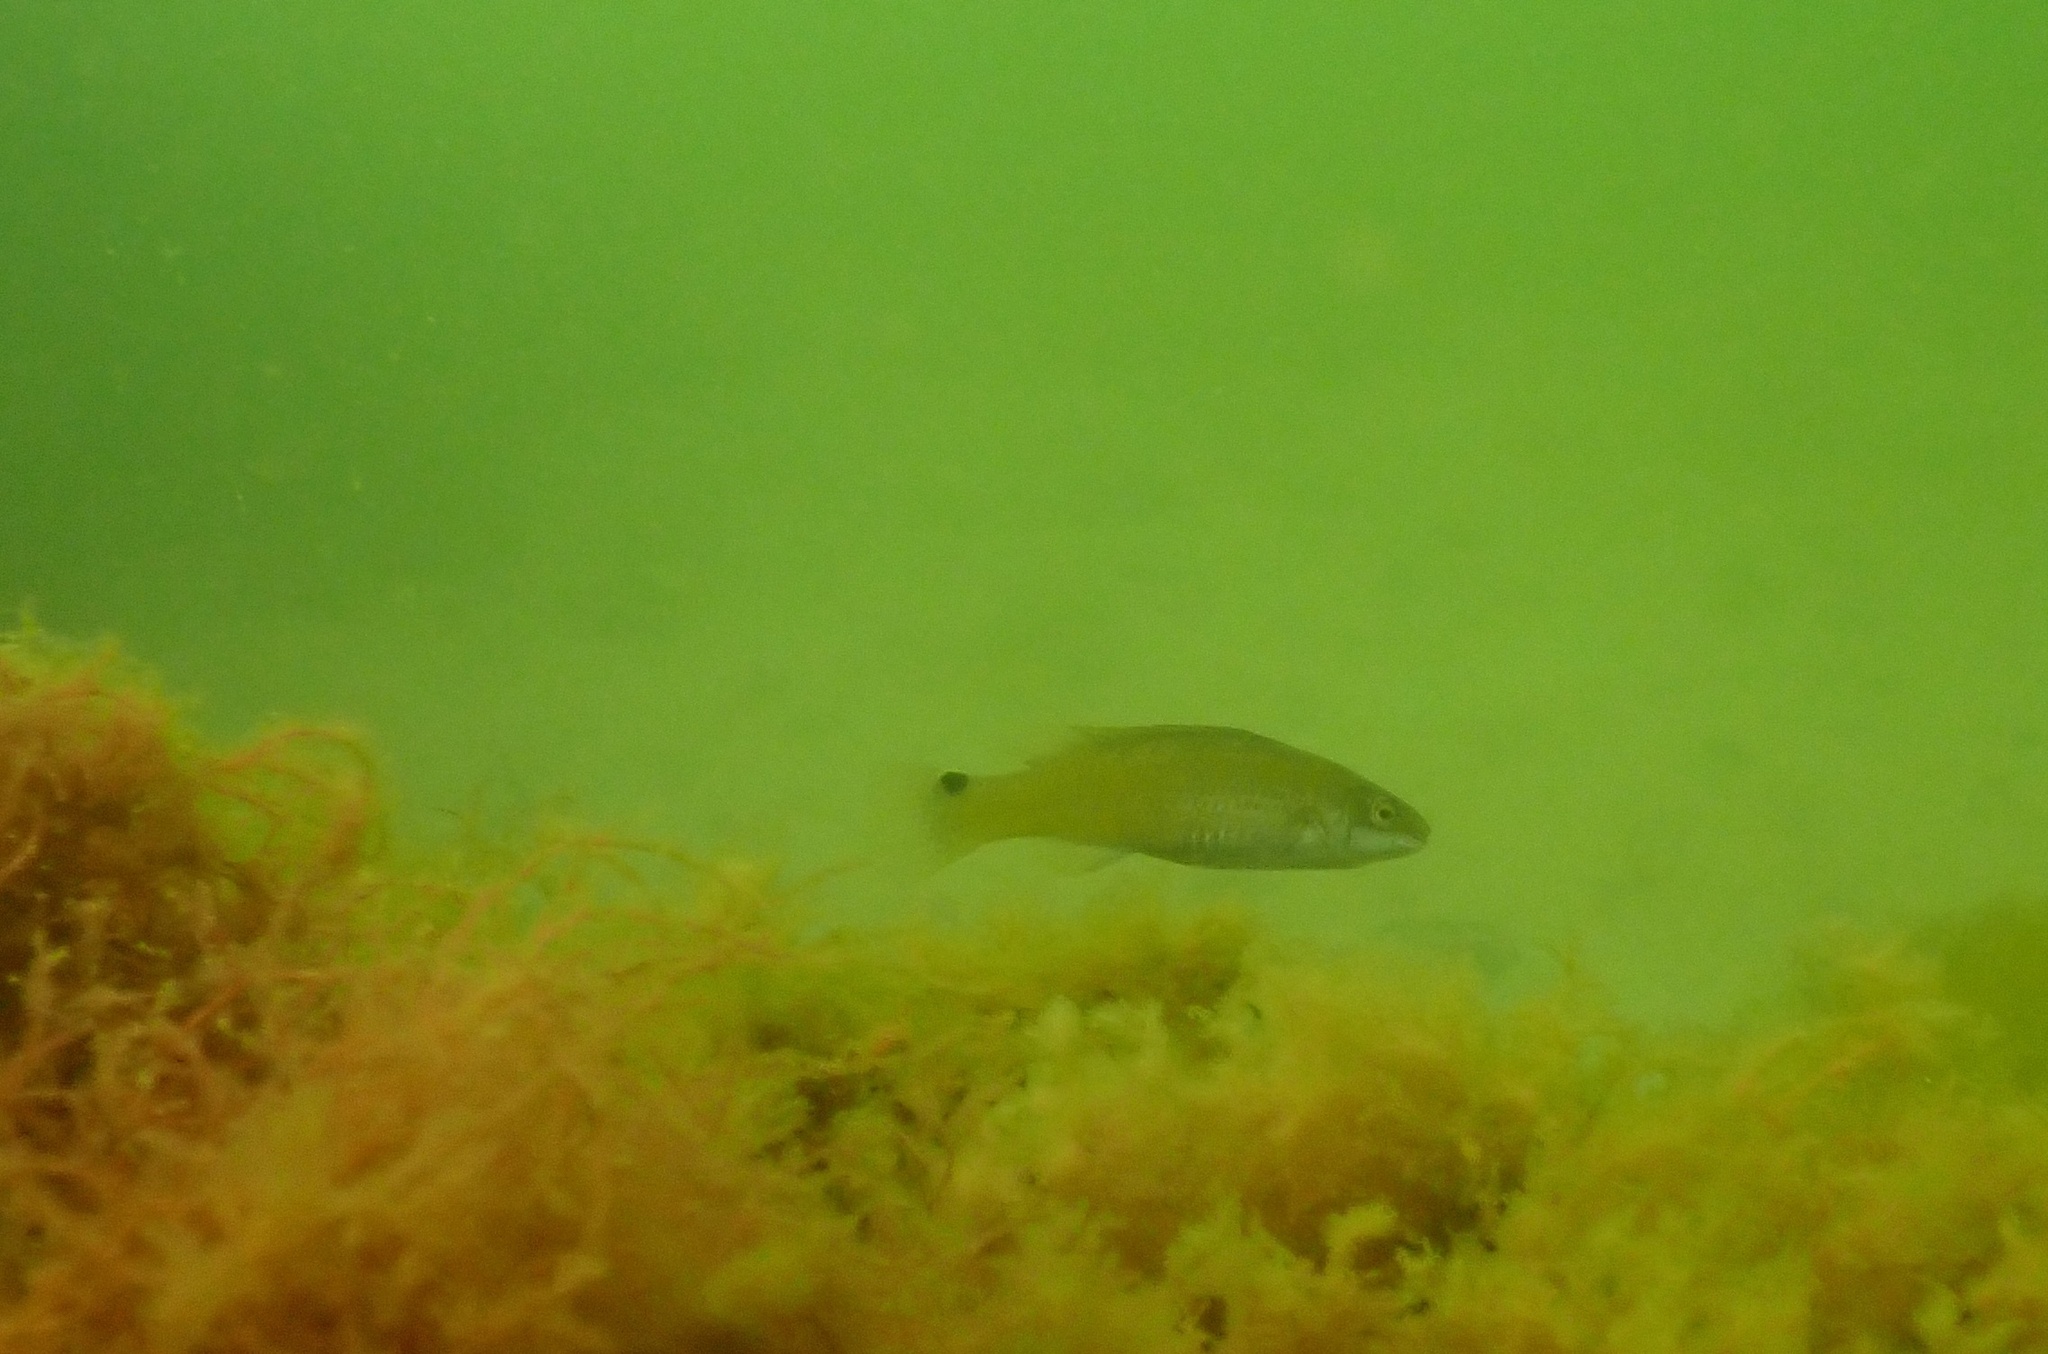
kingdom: Animalia
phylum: Chordata
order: Perciformes
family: Labridae
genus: Ctenolabrus
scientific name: Ctenolabrus rupestris
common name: Goldsinny
